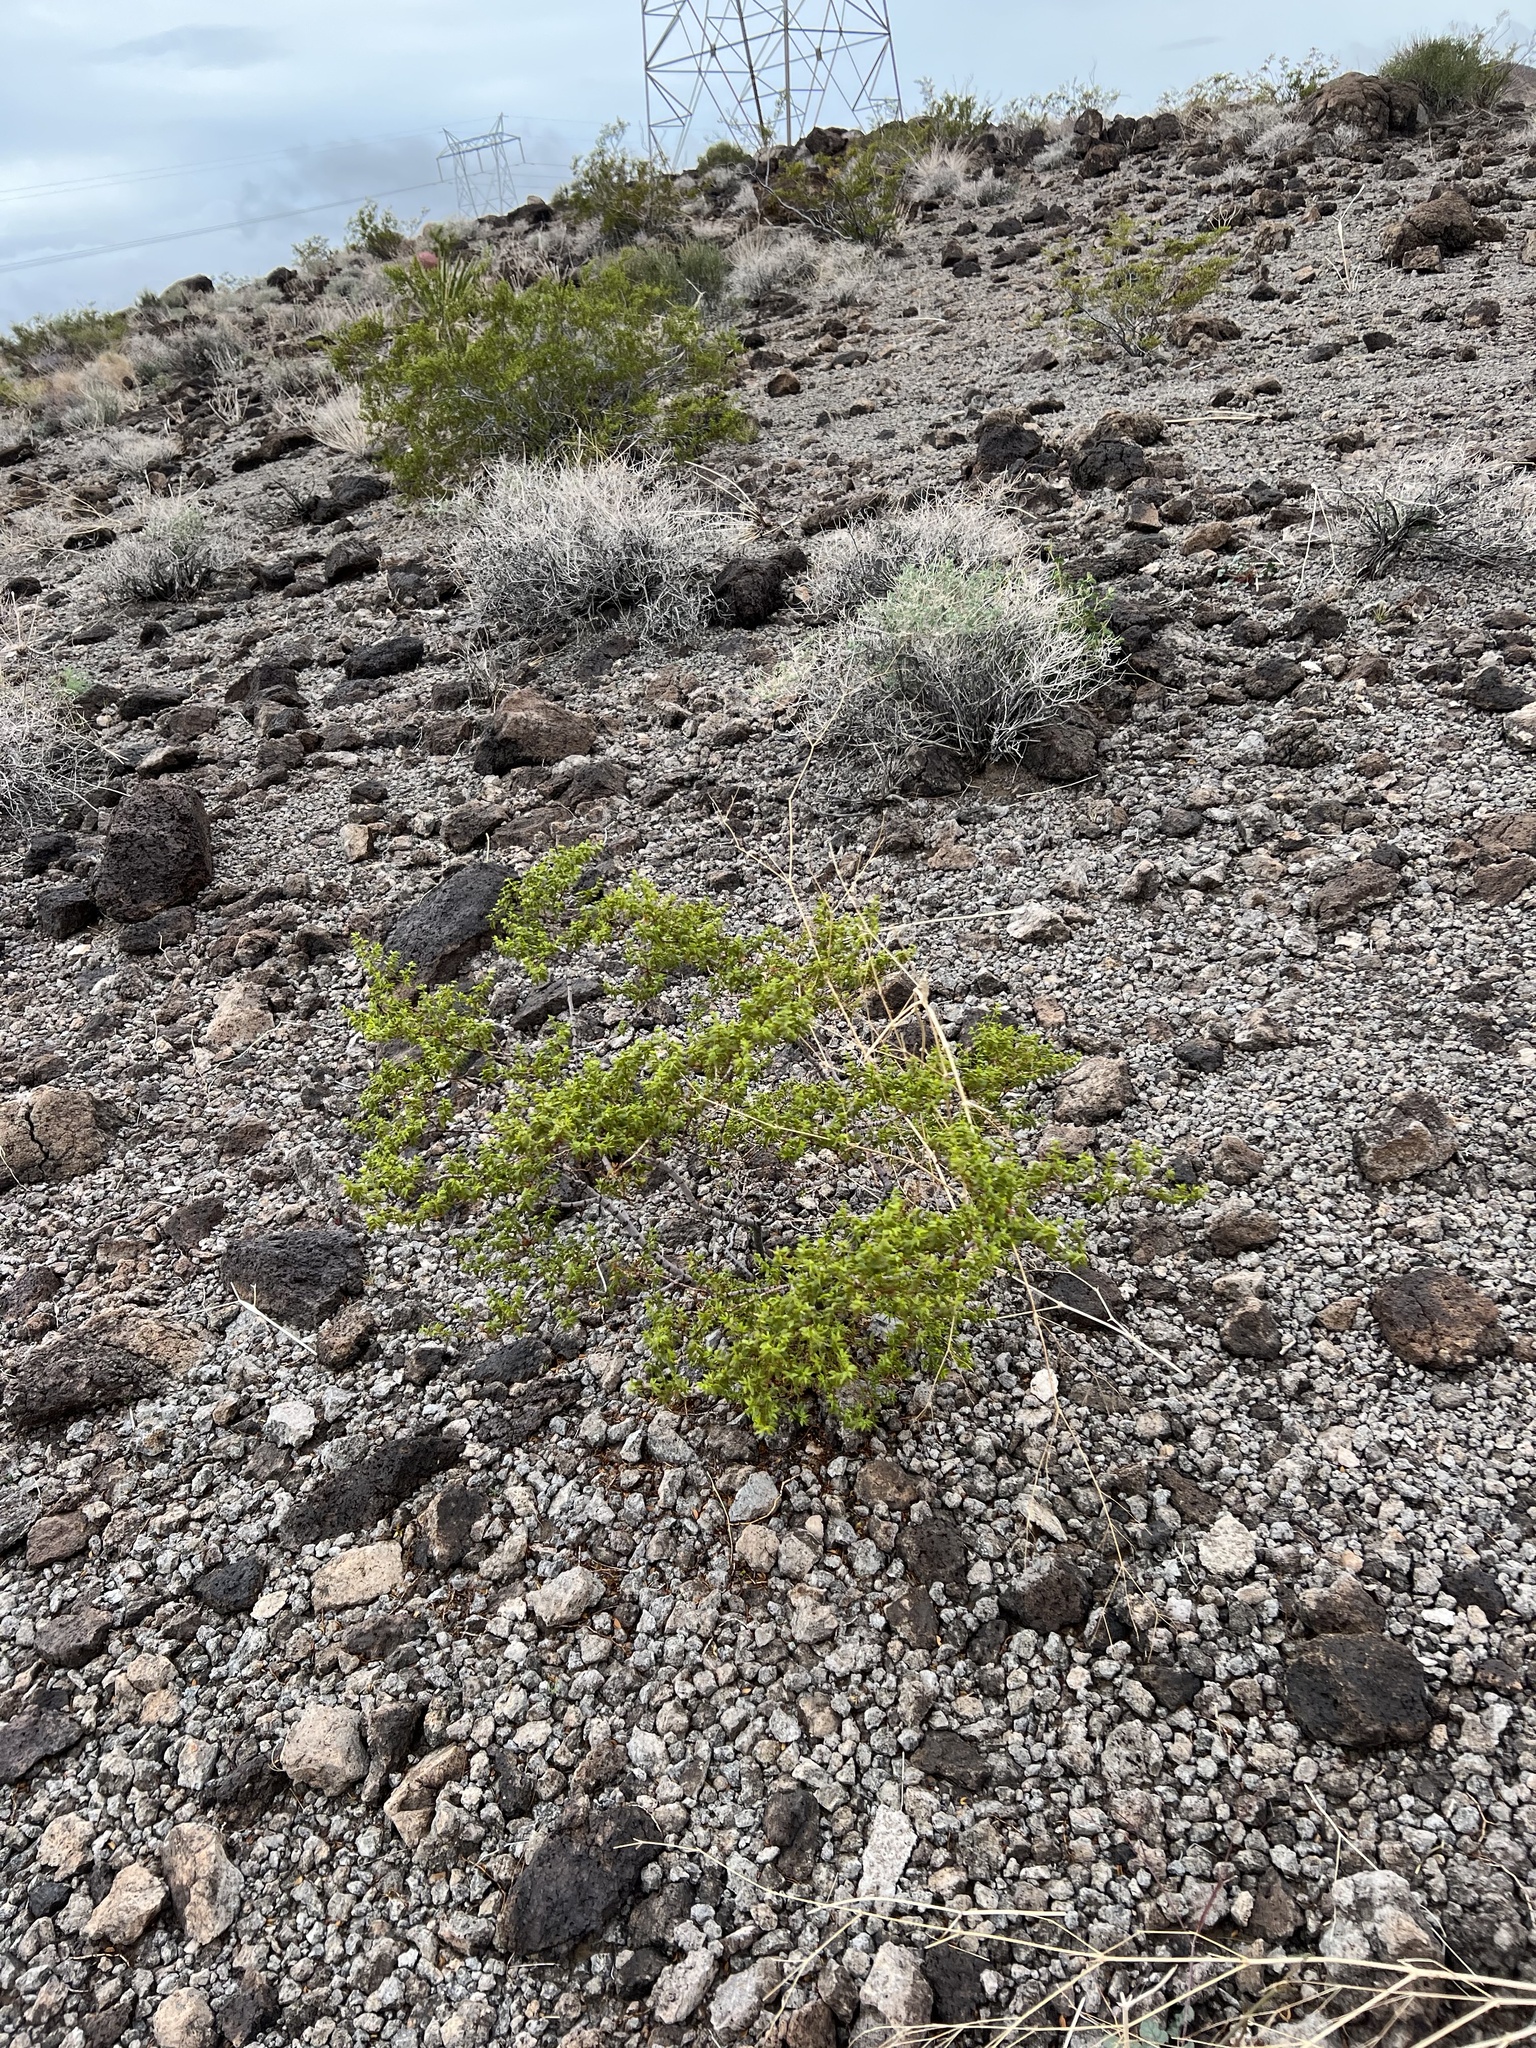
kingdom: Plantae
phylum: Tracheophyta
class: Magnoliopsida
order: Zygophyllales
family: Zygophyllaceae
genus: Larrea
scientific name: Larrea tridentata
